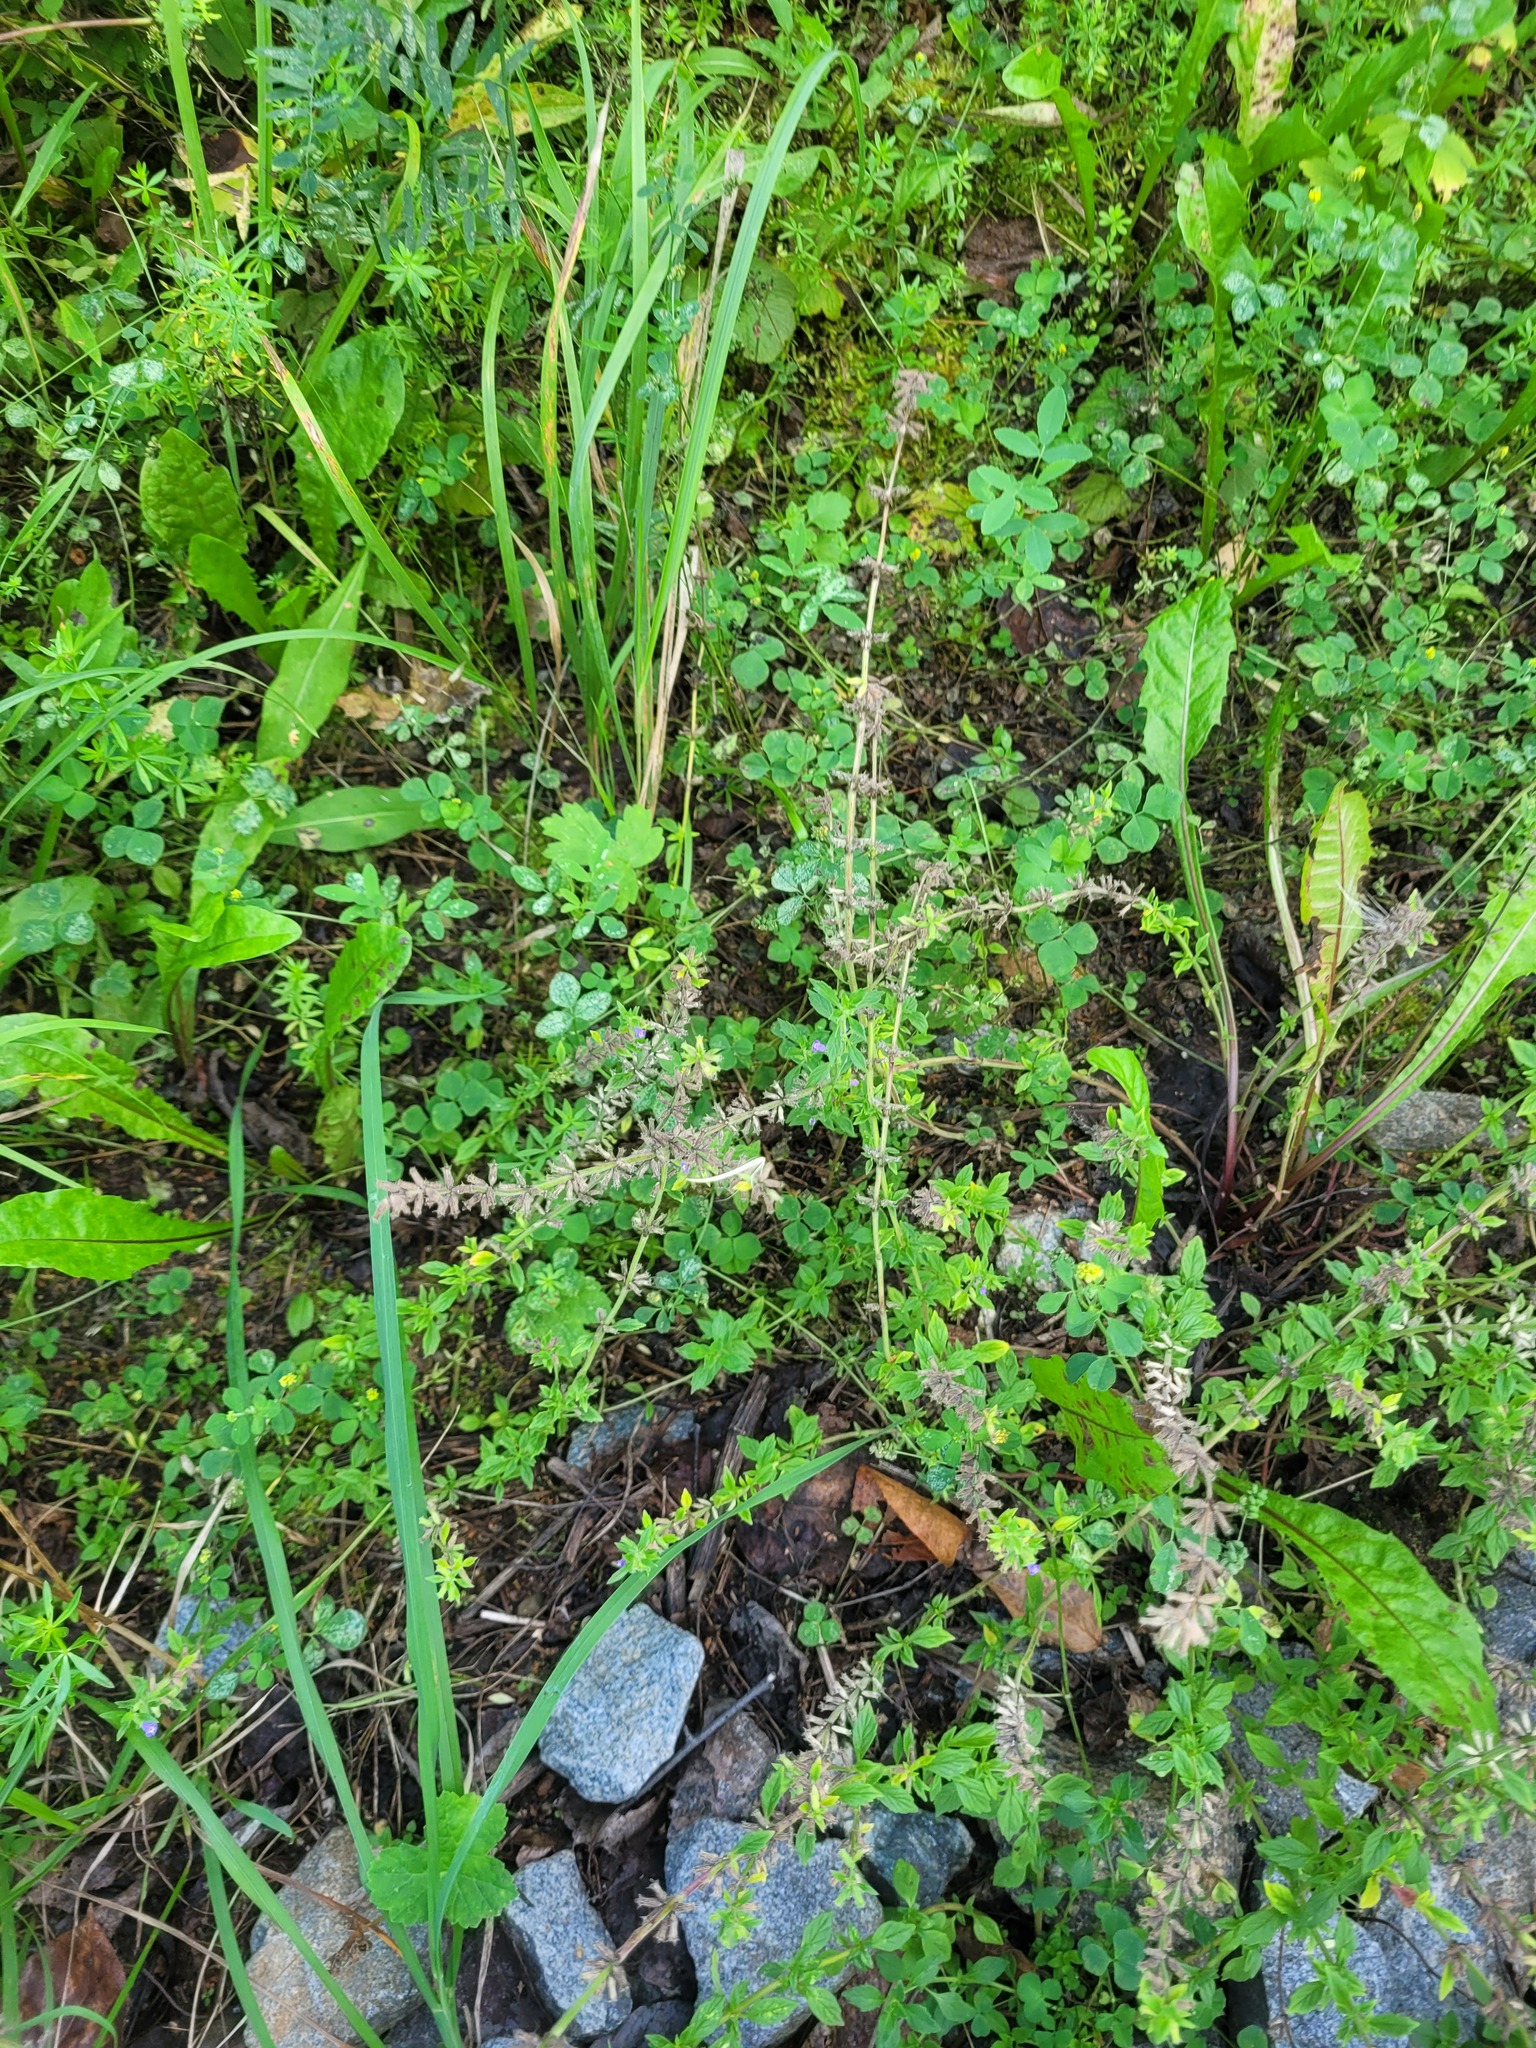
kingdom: Plantae
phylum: Tracheophyta
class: Magnoliopsida
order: Lamiales
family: Lamiaceae
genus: Clinopodium
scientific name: Clinopodium acinos
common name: Basil thyme
